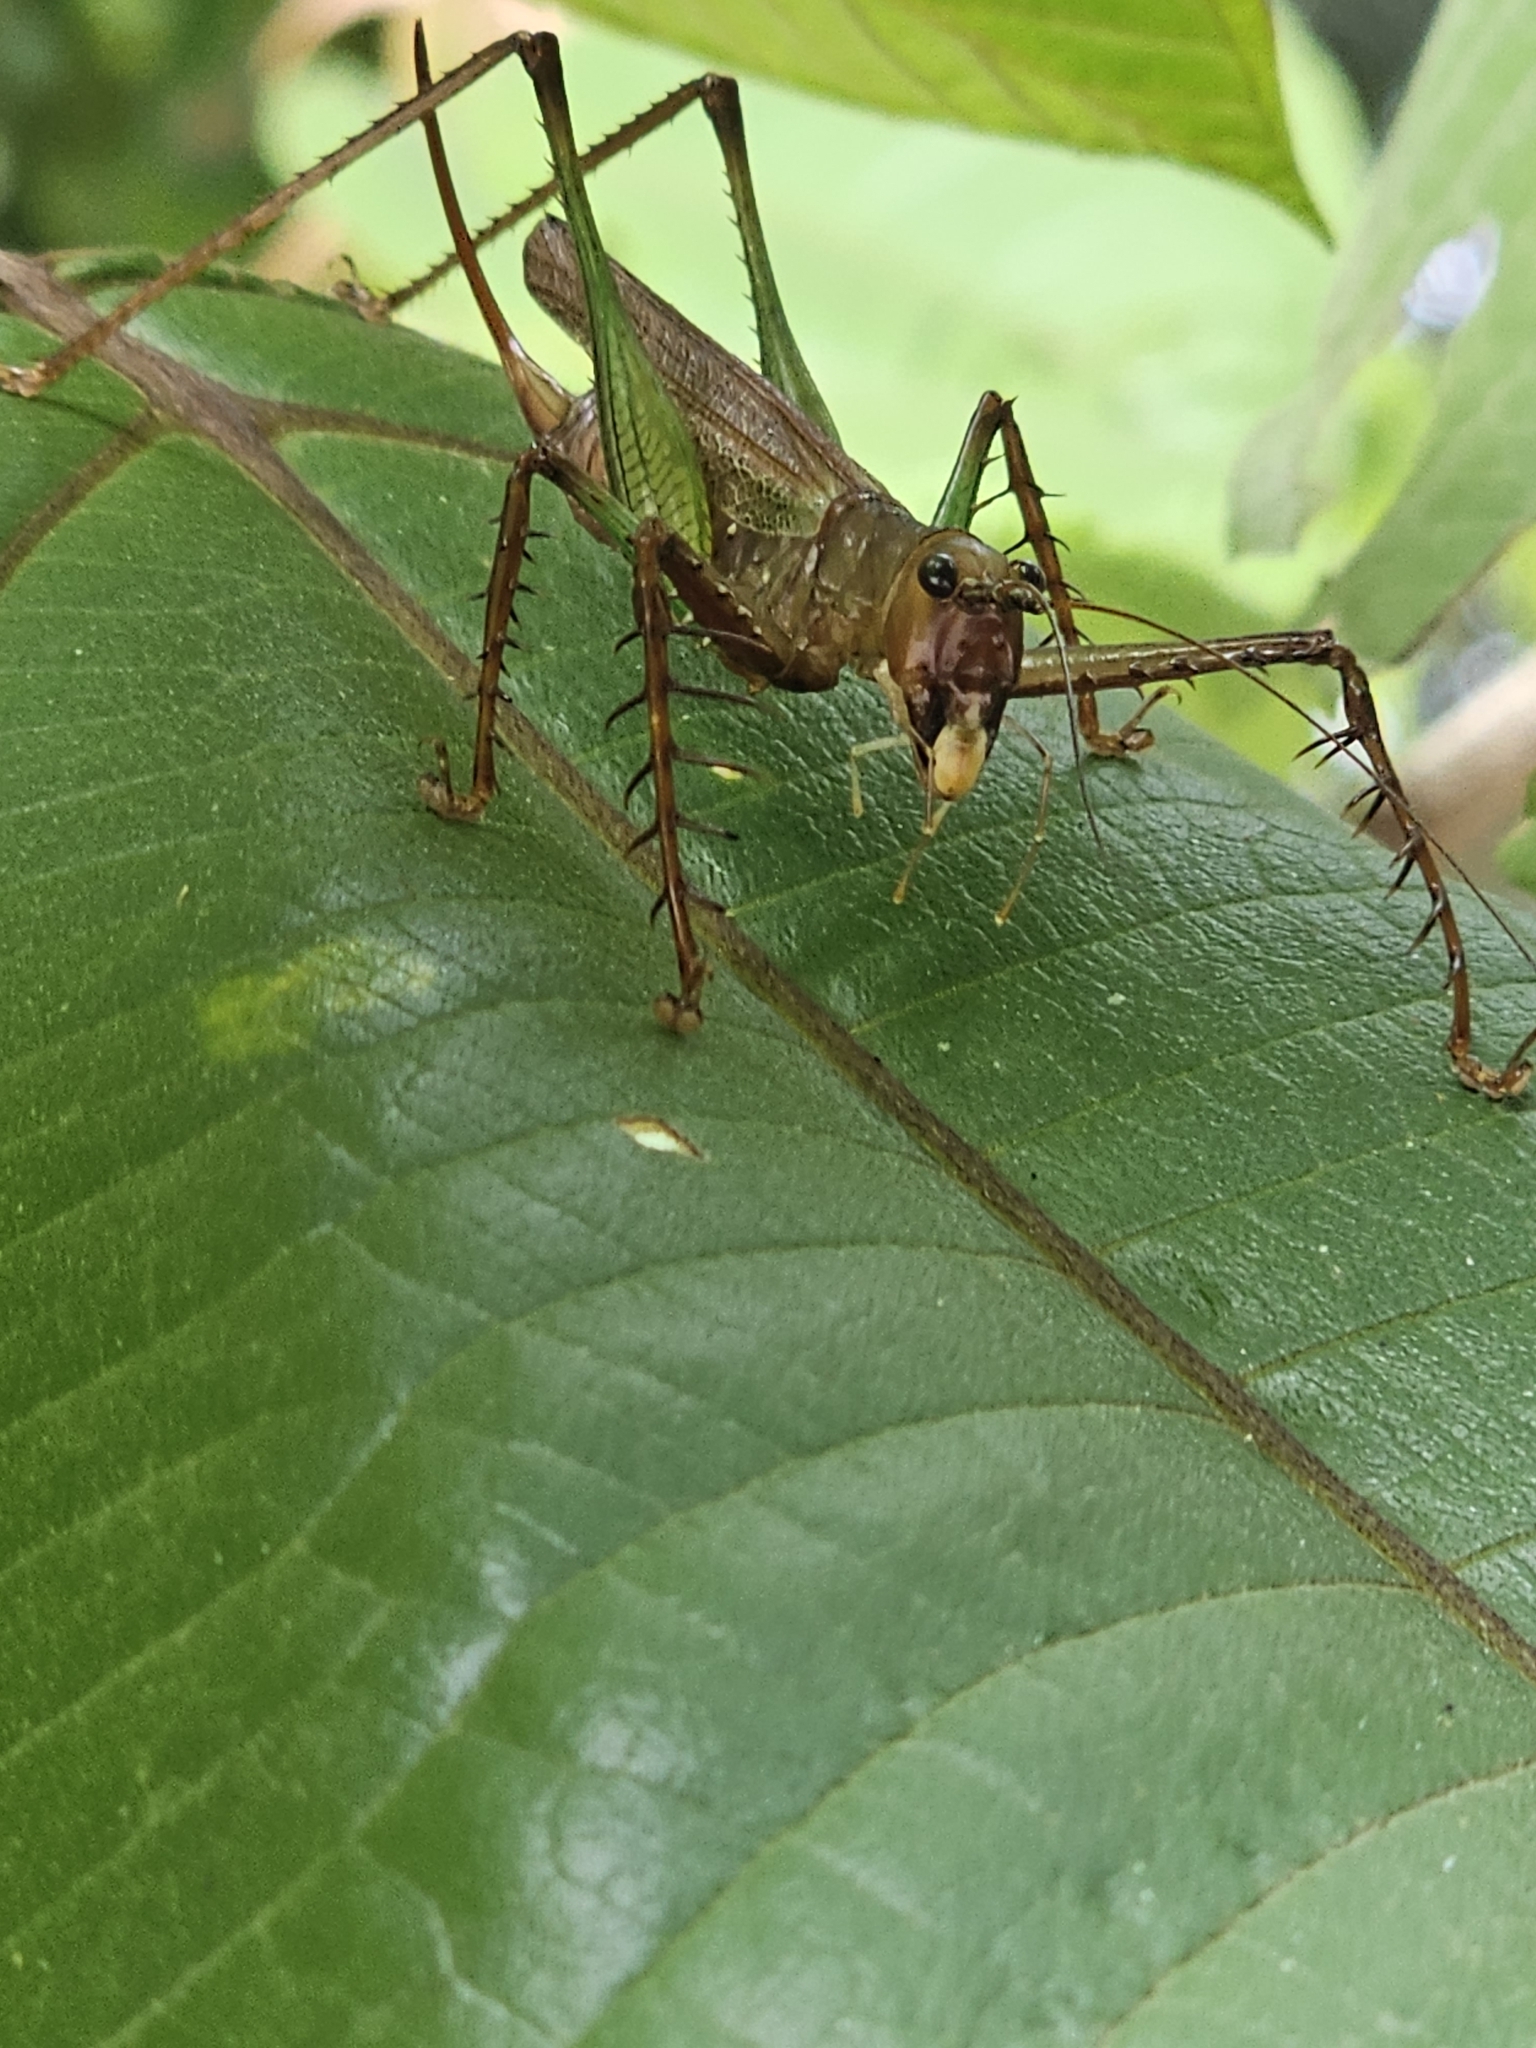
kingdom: Animalia
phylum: Arthropoda
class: Insecta
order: Orthoptera
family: Tettigoniidae
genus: Venatorellus
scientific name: Venatorellus viridipedes
